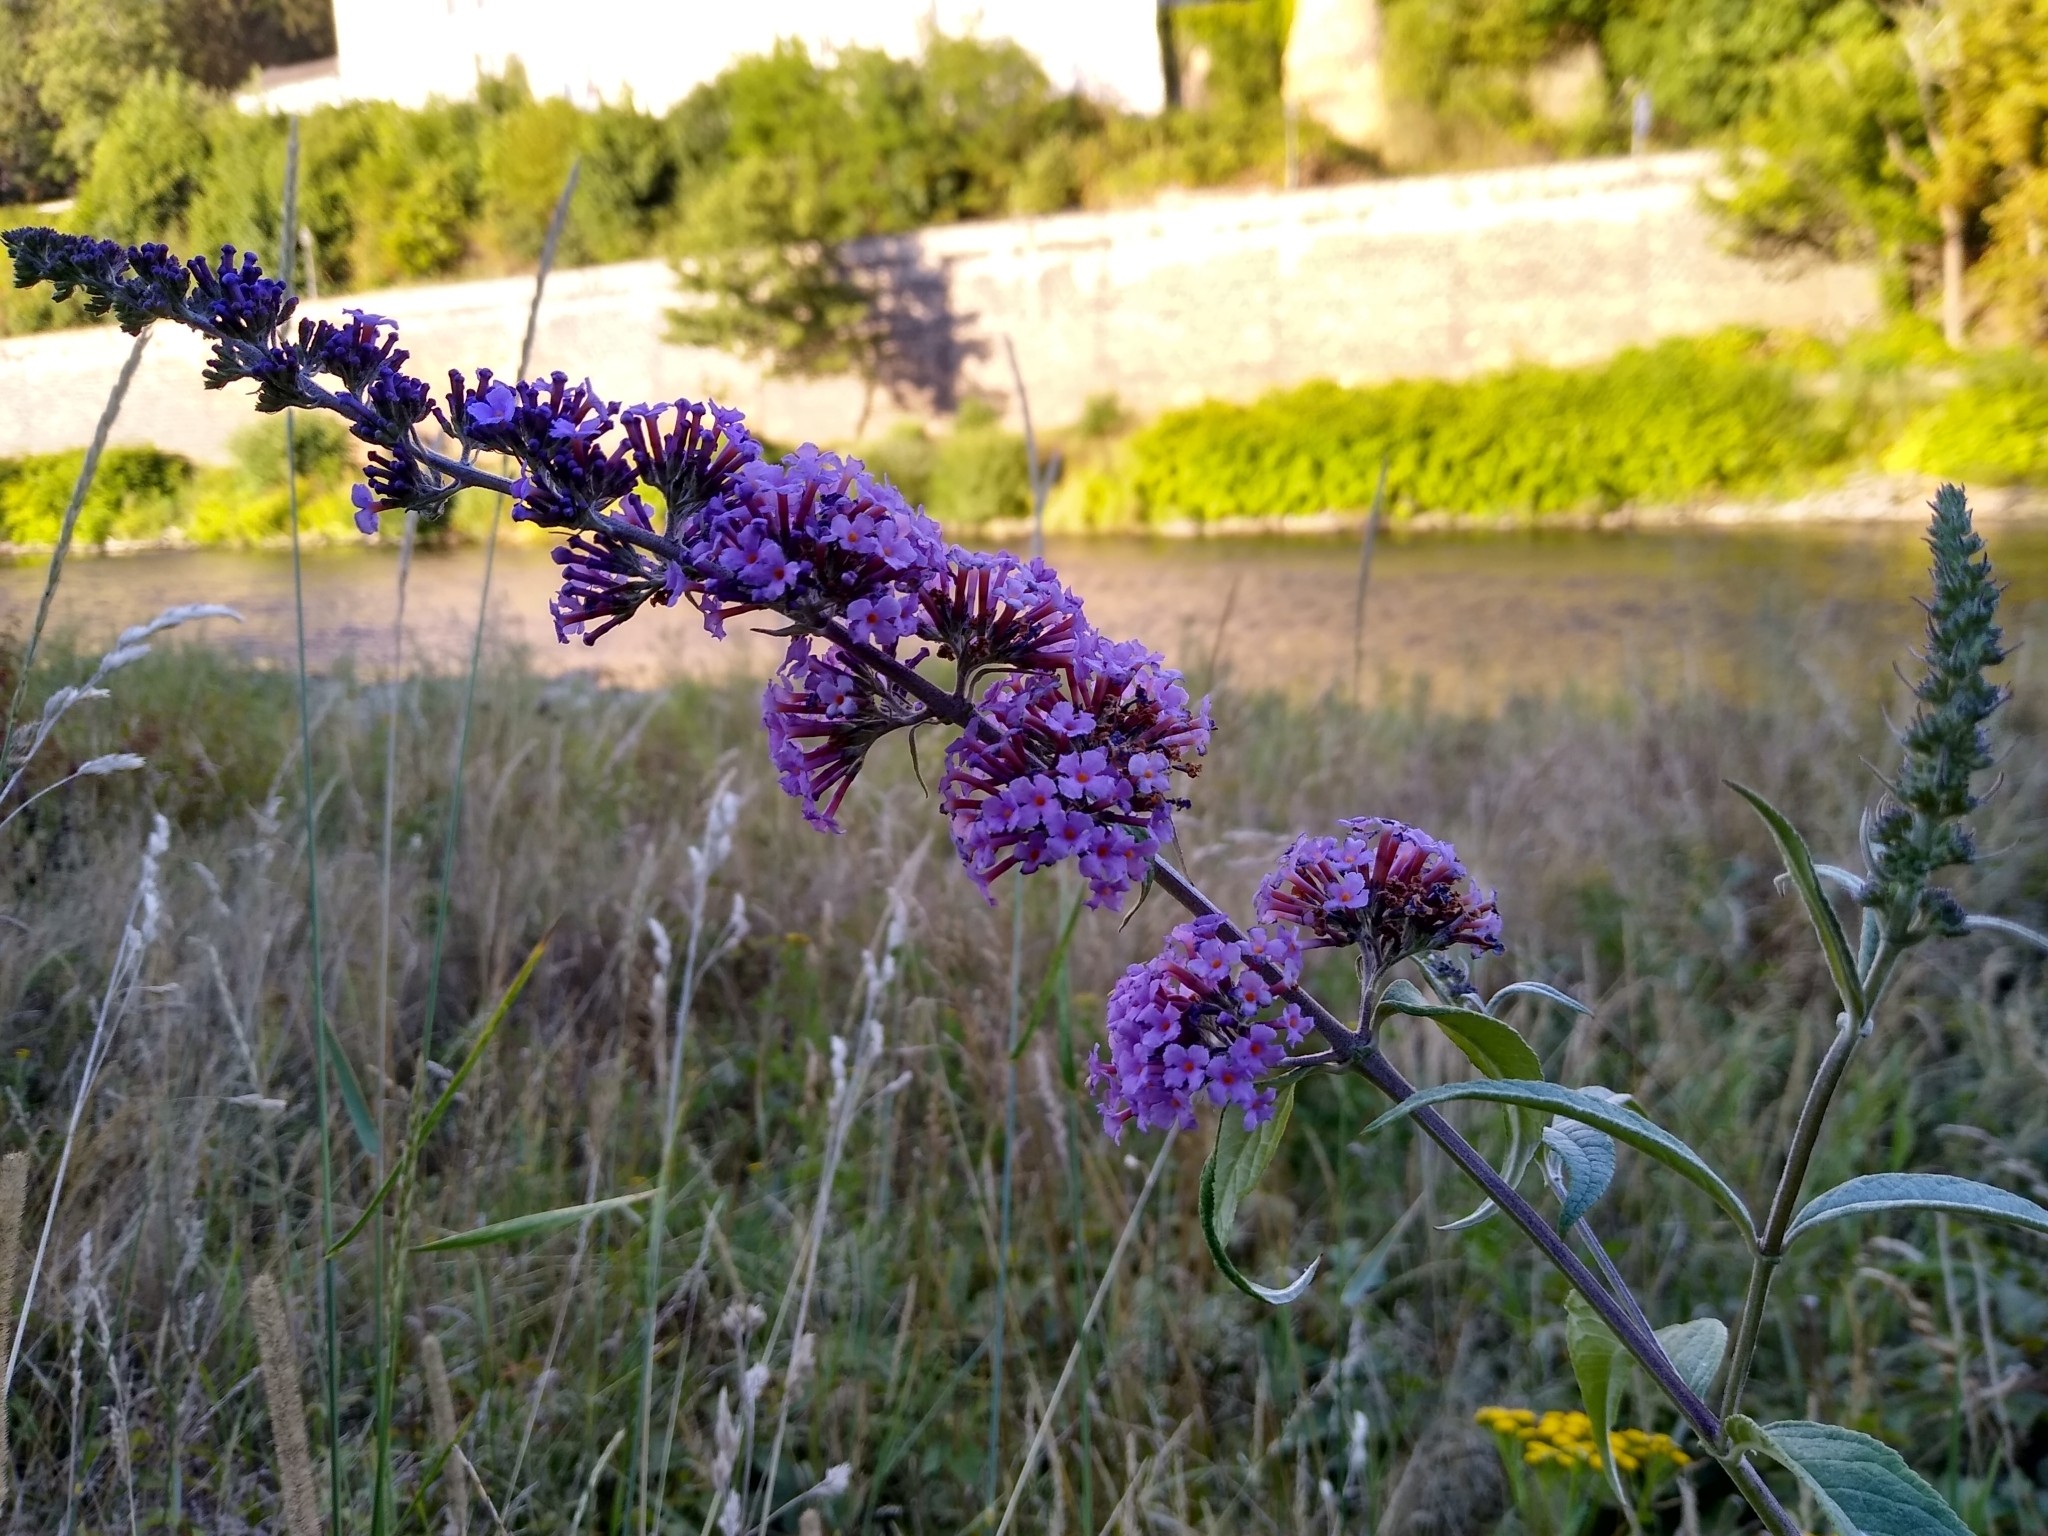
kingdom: Plantae
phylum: Tracheophyta
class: Magnoliopsida
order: Lamiales
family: Scrophulariaceae
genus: Buddleja
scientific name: Buddleja davidii
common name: Butterfly-bush
